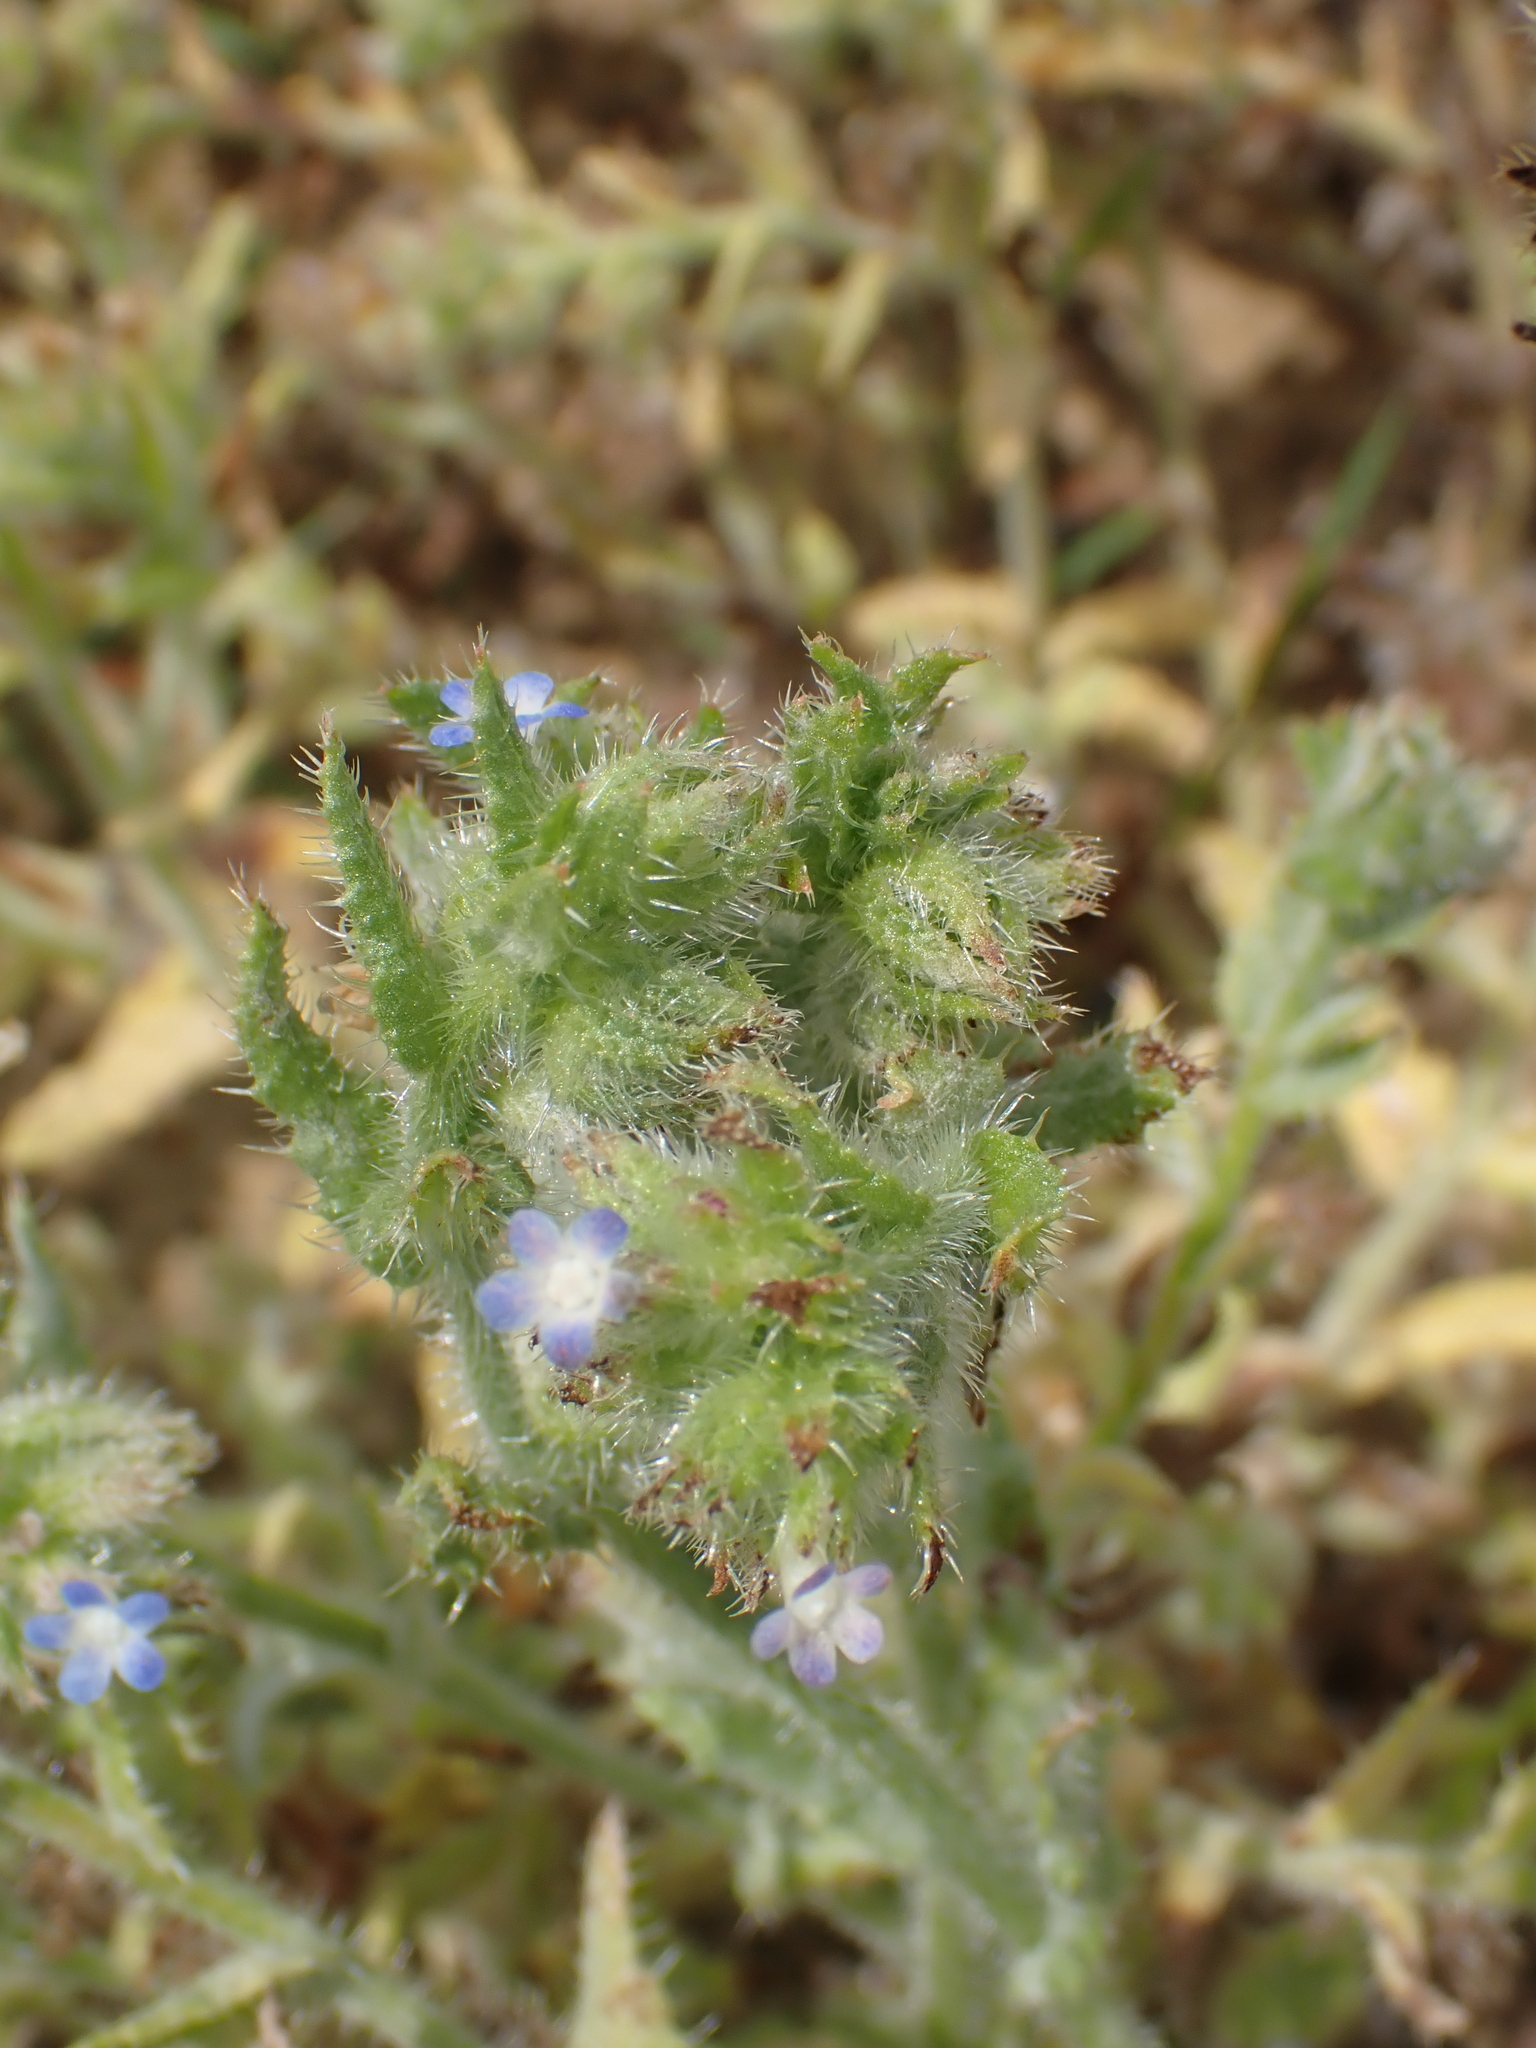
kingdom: Plantae
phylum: Tracheophyta
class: Magnoliopsida
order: Boraginales
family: Boraginaceae
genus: Lycopsis
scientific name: Lycopsis arvensis
